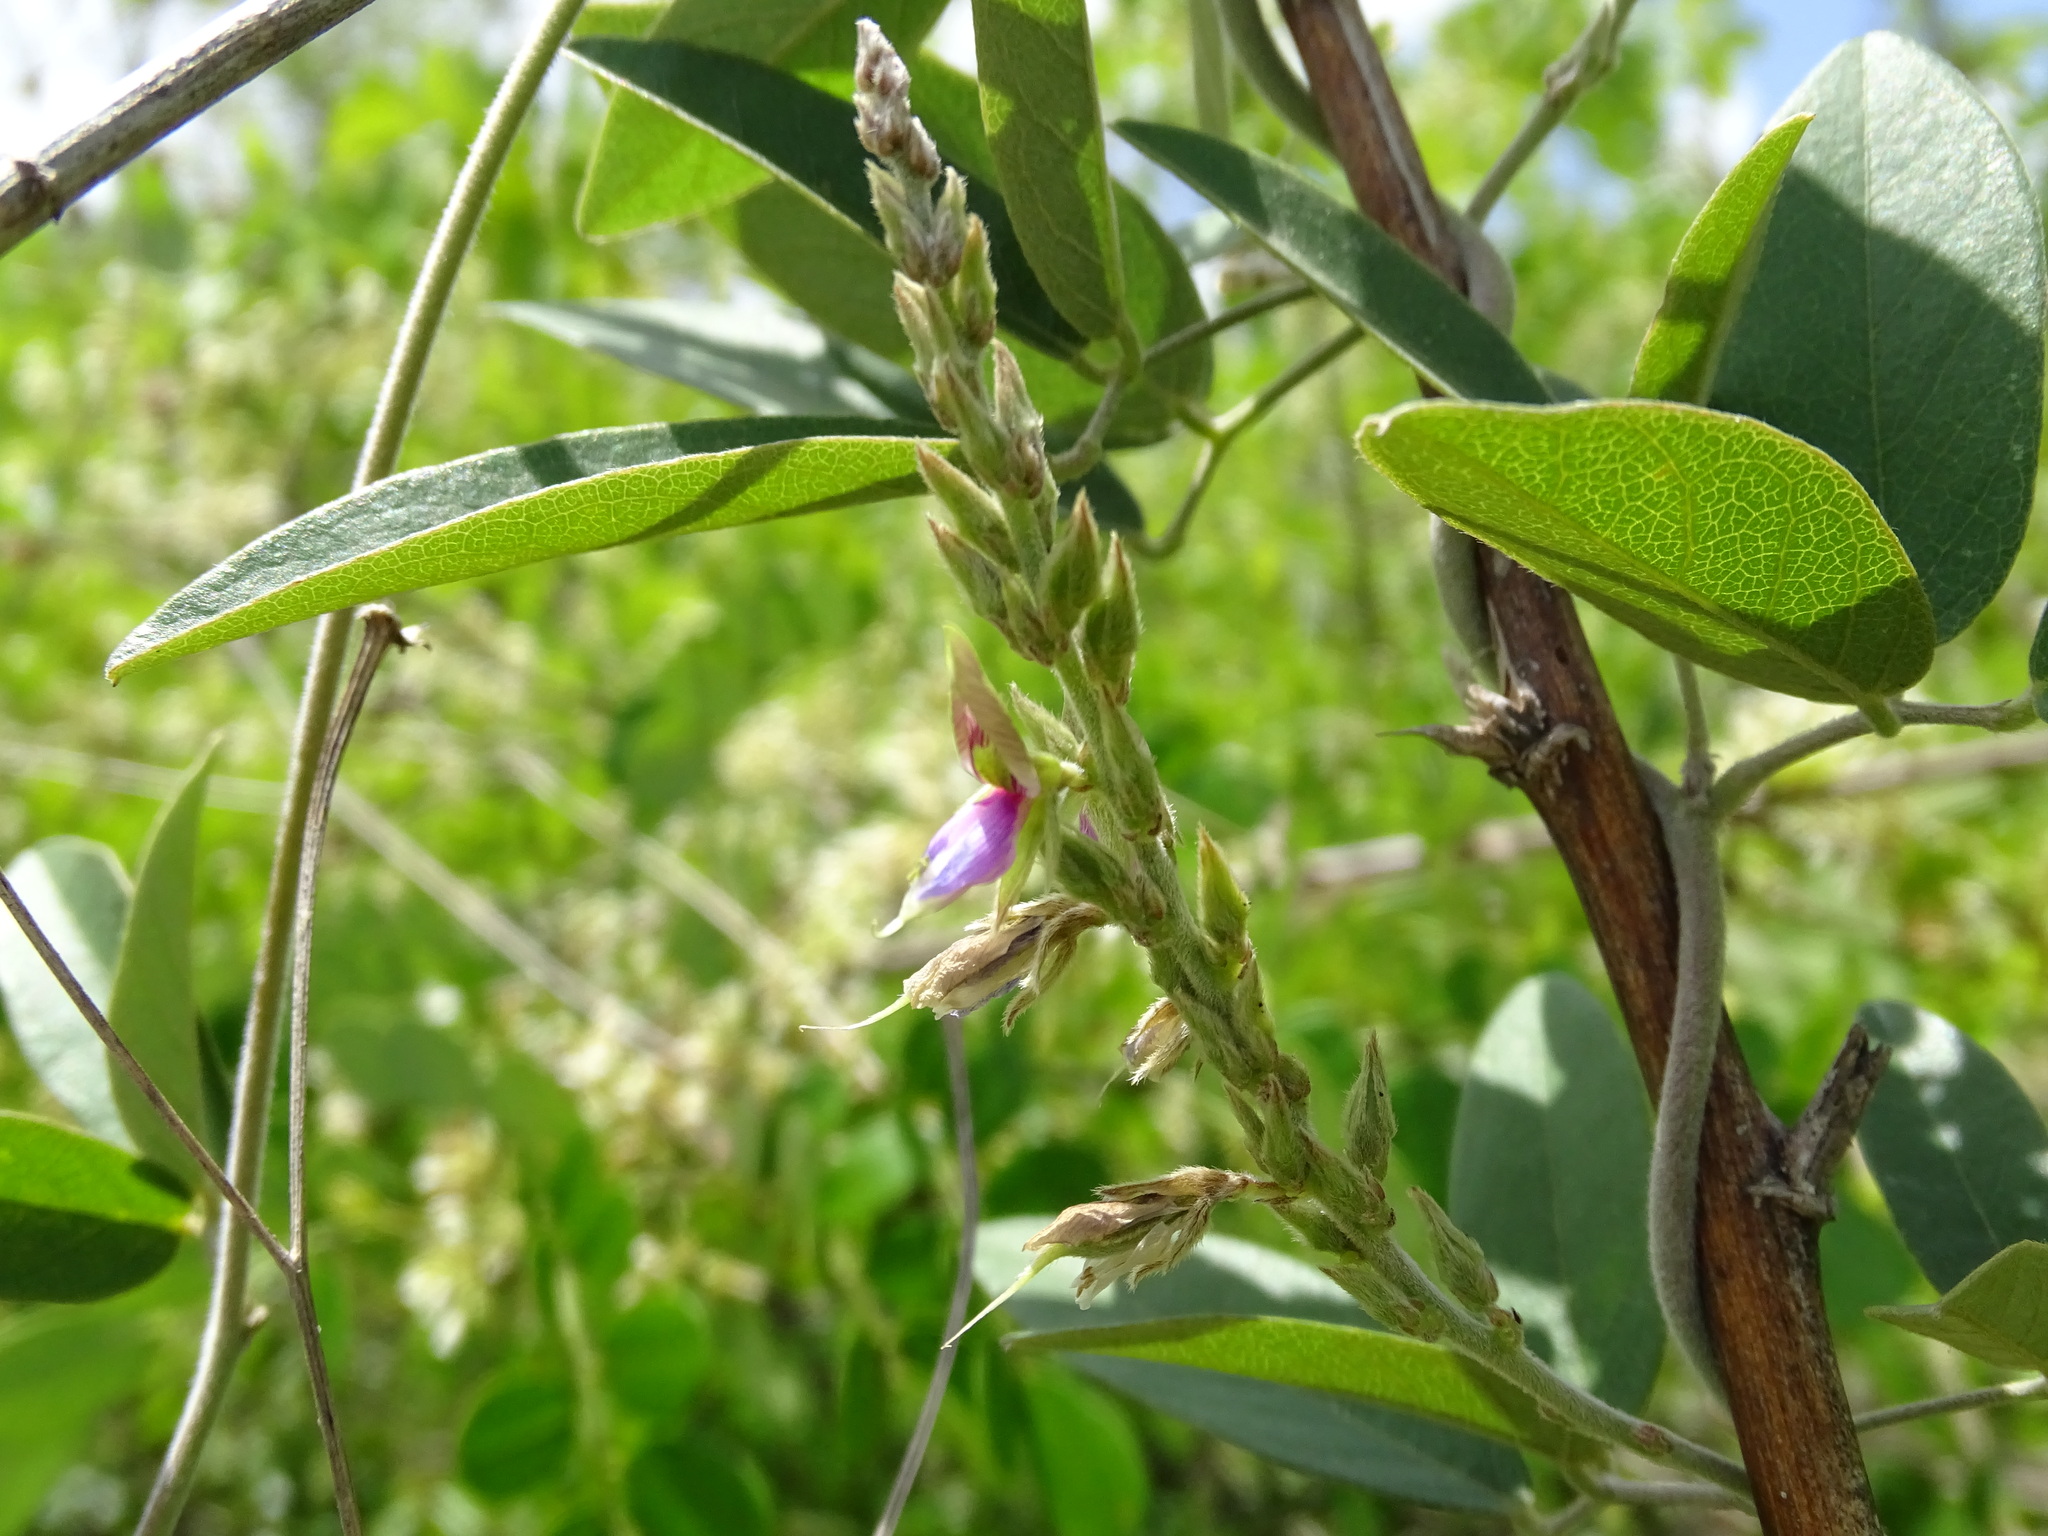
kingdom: Plantae
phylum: Tracheophyta
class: Magnoliopsida
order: Fabales
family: Fabaceae
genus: Galactia
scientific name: Galactia striata
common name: Florida hammock milkpea
